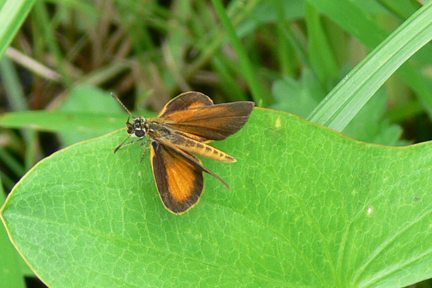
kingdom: Animalia
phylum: Arthropoda
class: Insecta
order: Lepidoptera
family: Hesperiidae
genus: Ancyloxypha
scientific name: Ancyloxypha numitor
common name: Least skipper
